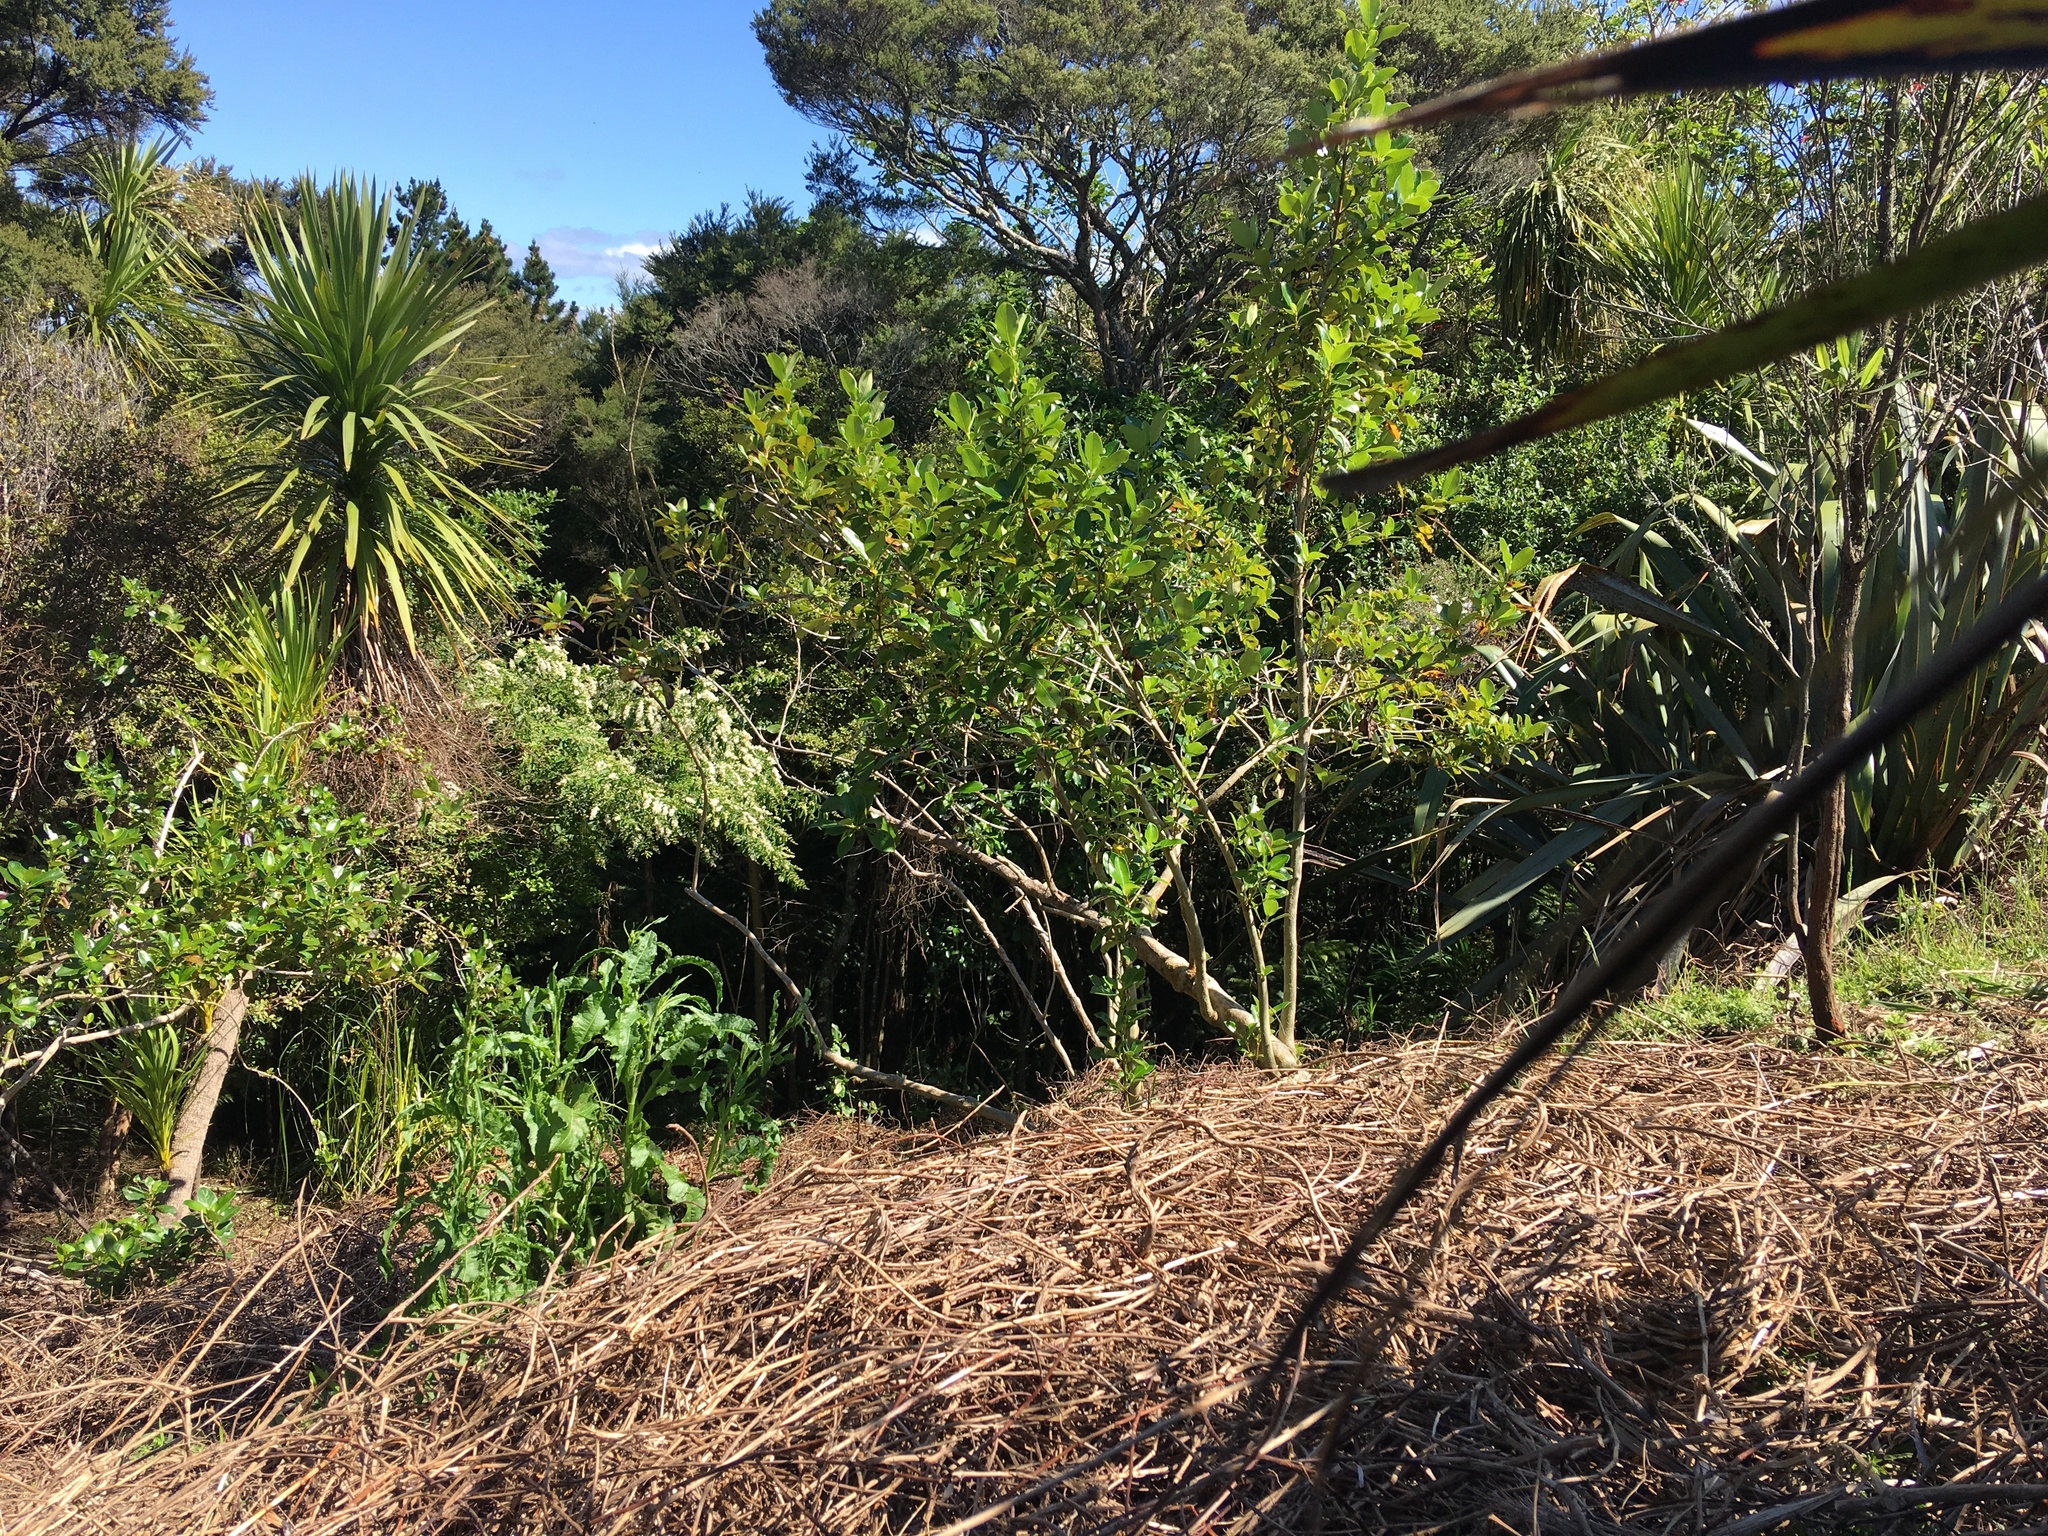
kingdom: Plantae
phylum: Tracheophyta
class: Magnoliopsida
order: Gentianales
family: Rubiaceae
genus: Coprosma
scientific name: Coprosma robusta
